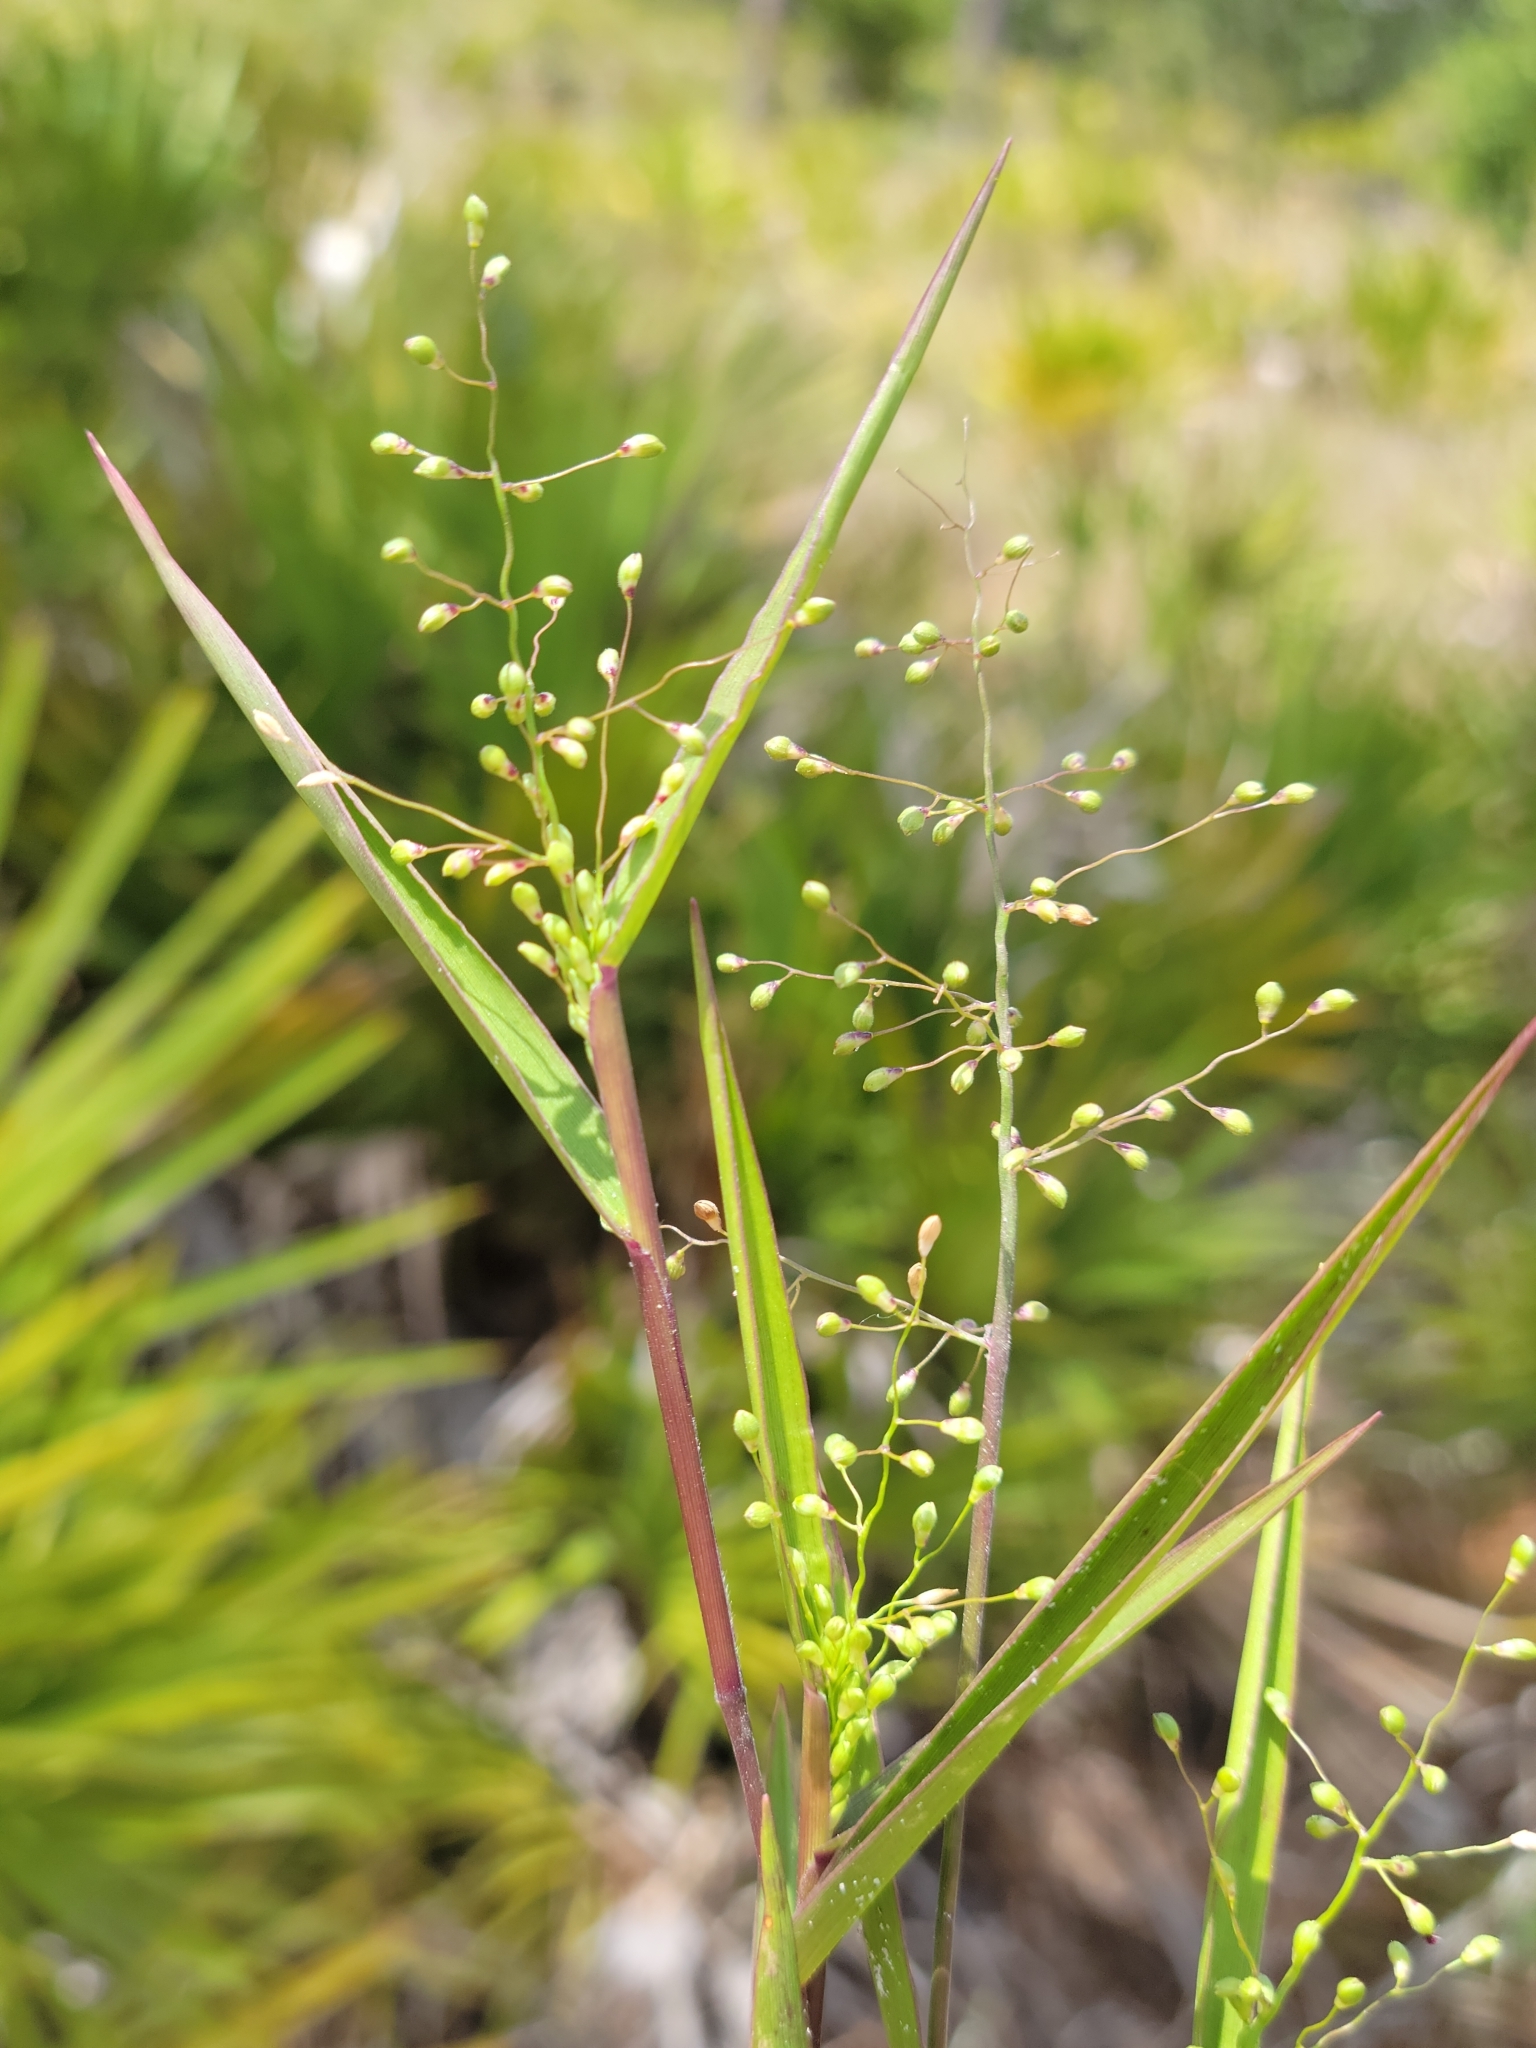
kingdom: Plantae
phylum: Tracheophyta
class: Liliopsida
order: Poales
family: Poaceae
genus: Dichanthelium
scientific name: Dichanthelium patentifolium
